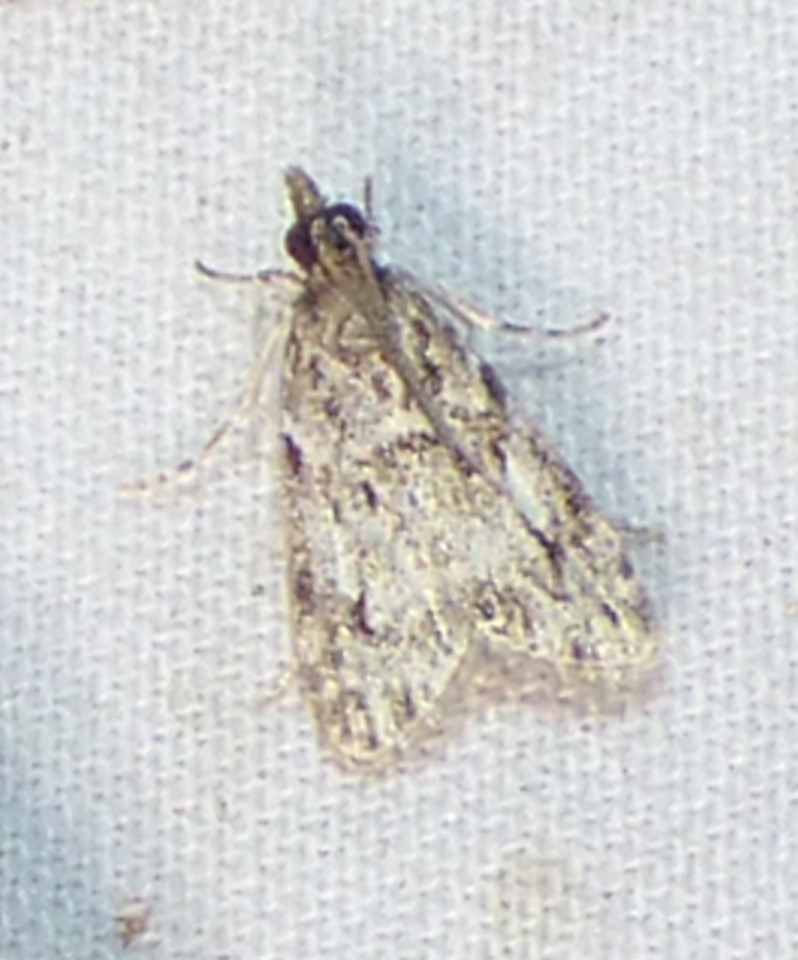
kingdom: Animalia
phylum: Arthropoda
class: Insecta
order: Lepidoptera
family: Crambidae
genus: Scoparia
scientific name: Scoparia basalis
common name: Many-spotted scoparia moth
